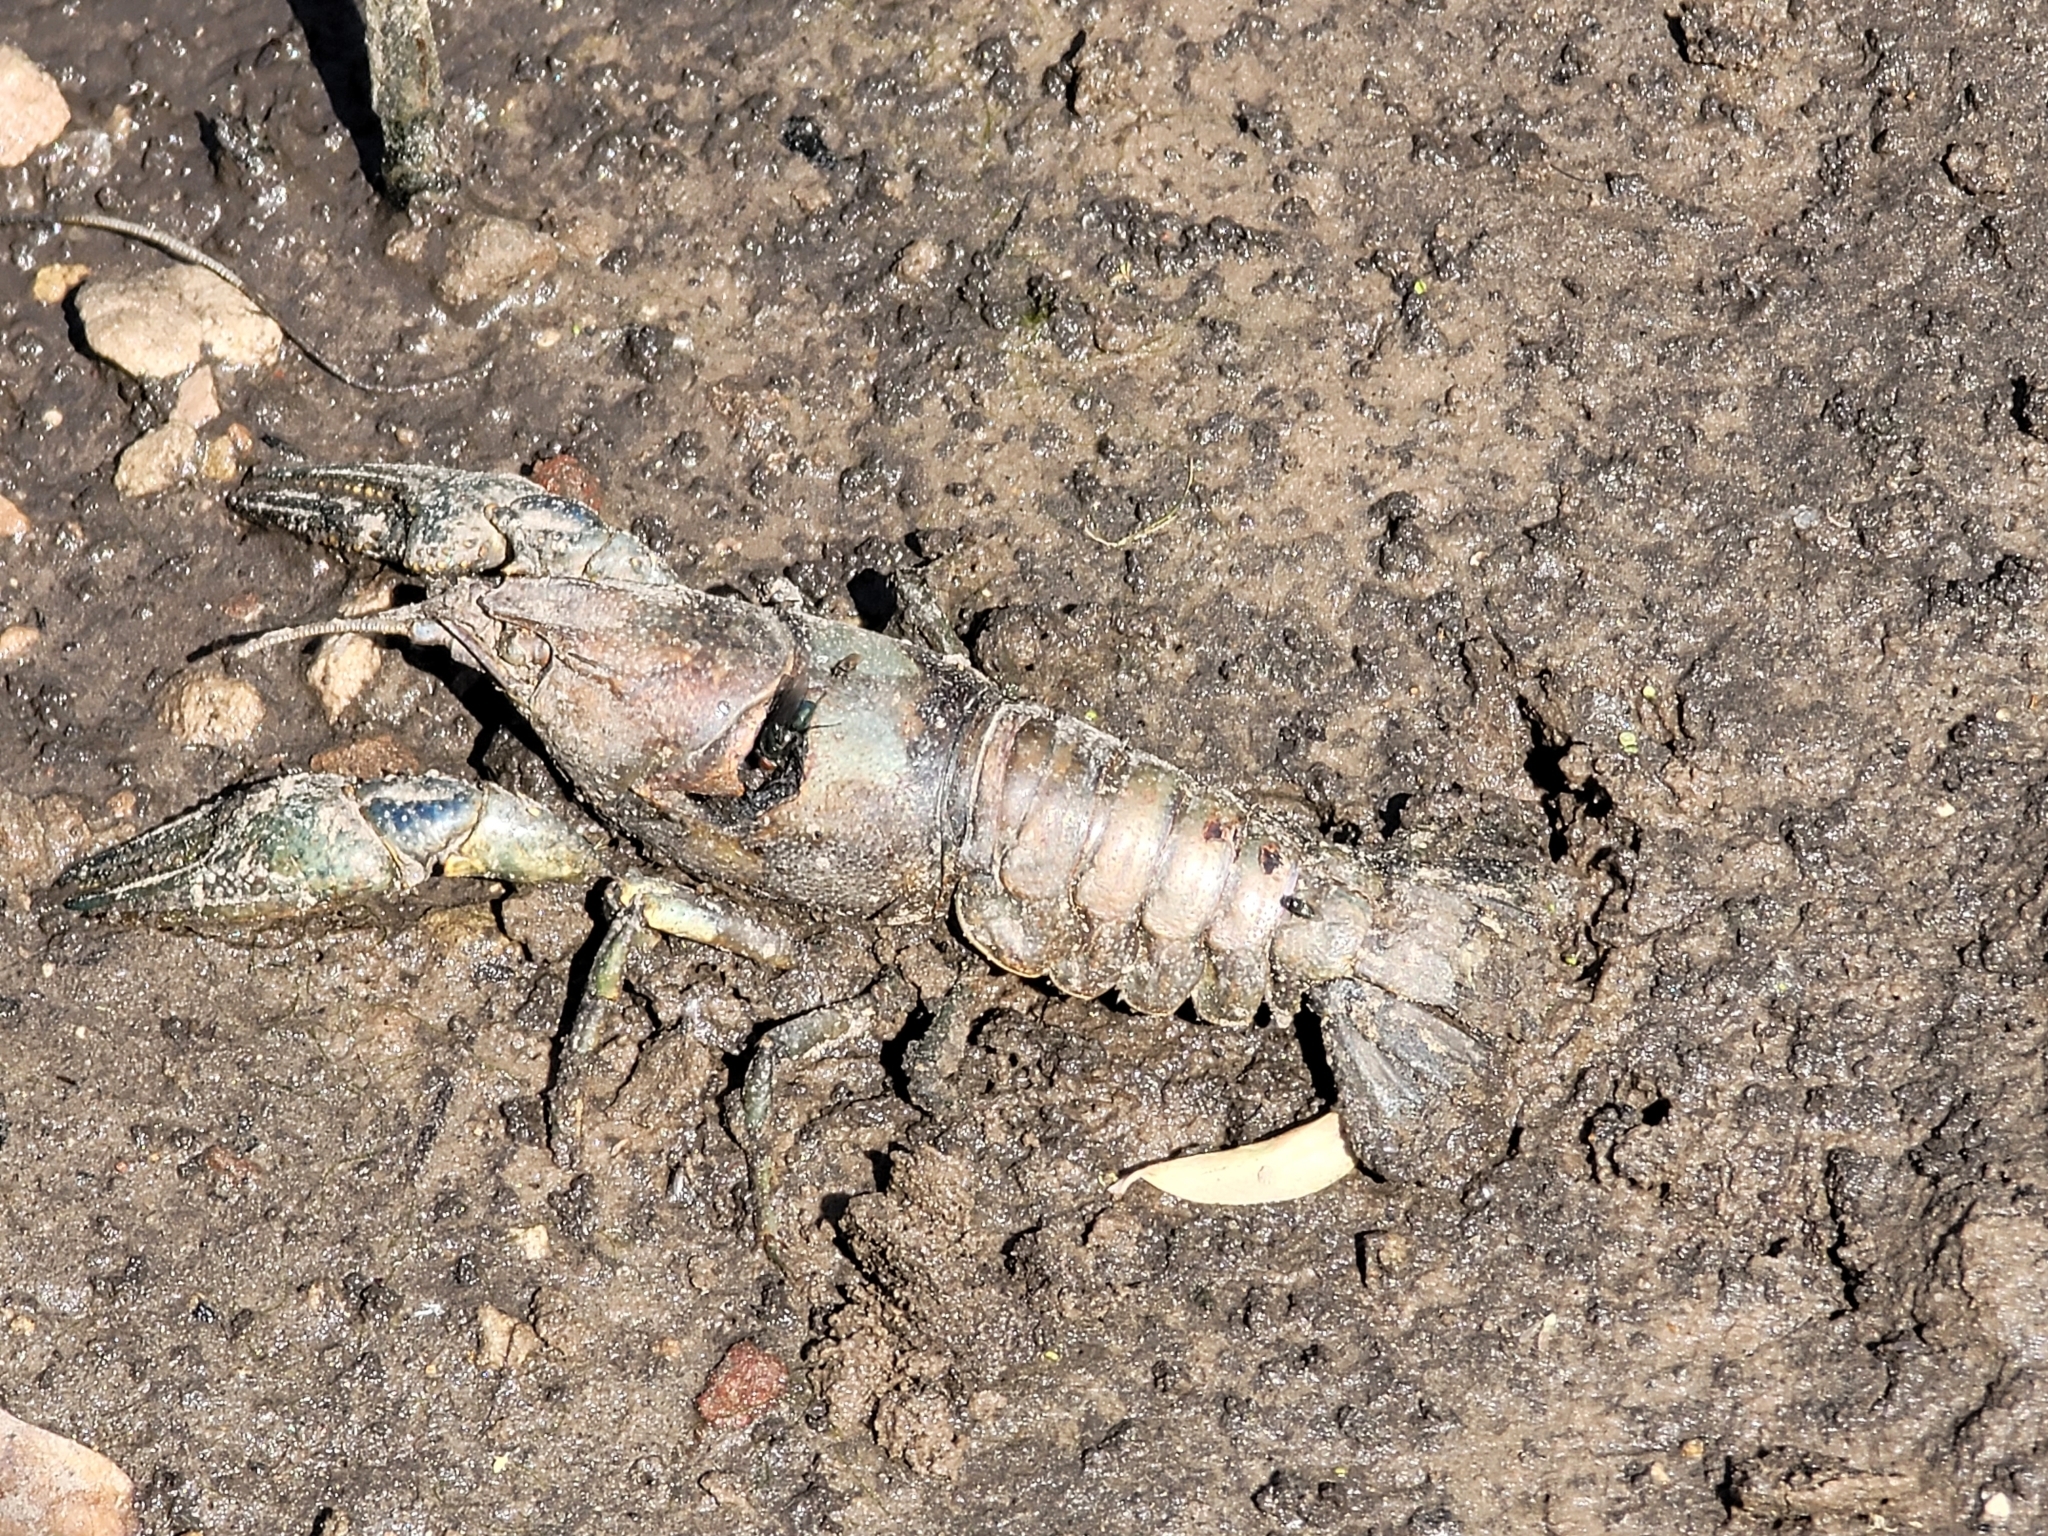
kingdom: Animalia
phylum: Arthropoda
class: Malacostraca
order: Decapoda
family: Cambaridae
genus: Faxonius
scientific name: Faxonius virilis
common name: Virile crayfish
